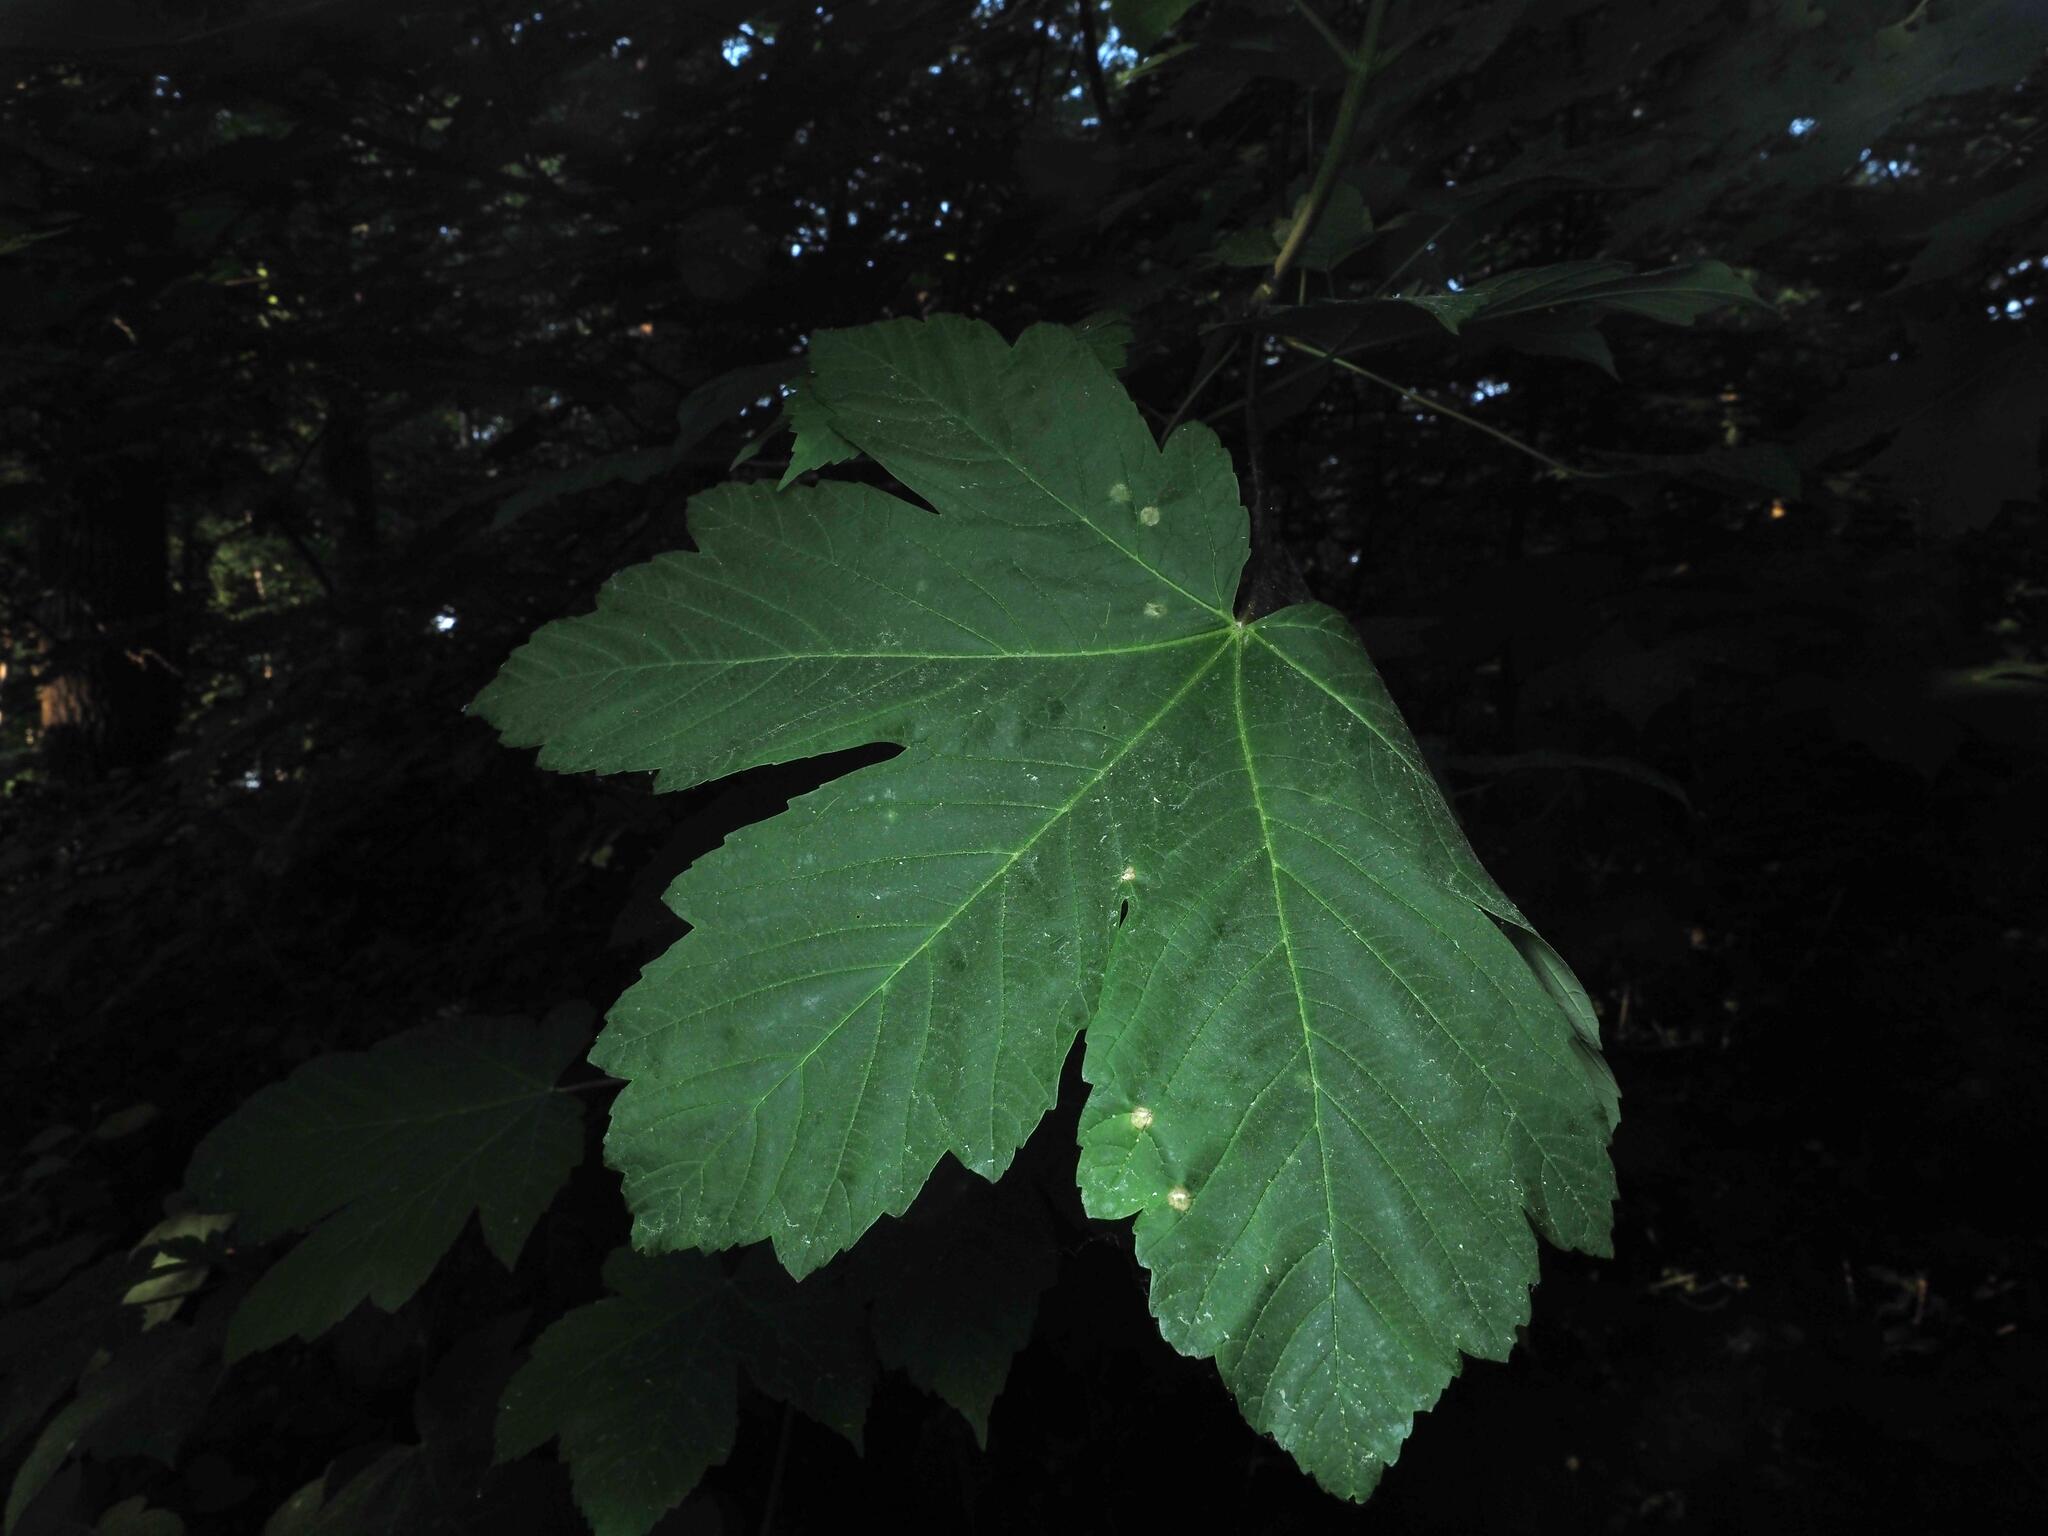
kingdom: Plantae
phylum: Tracheophyta
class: Magnoliopsida
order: Sapindales
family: Sapindaceae
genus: Acer
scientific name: Acer pseudoplatanus
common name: Sycamore
